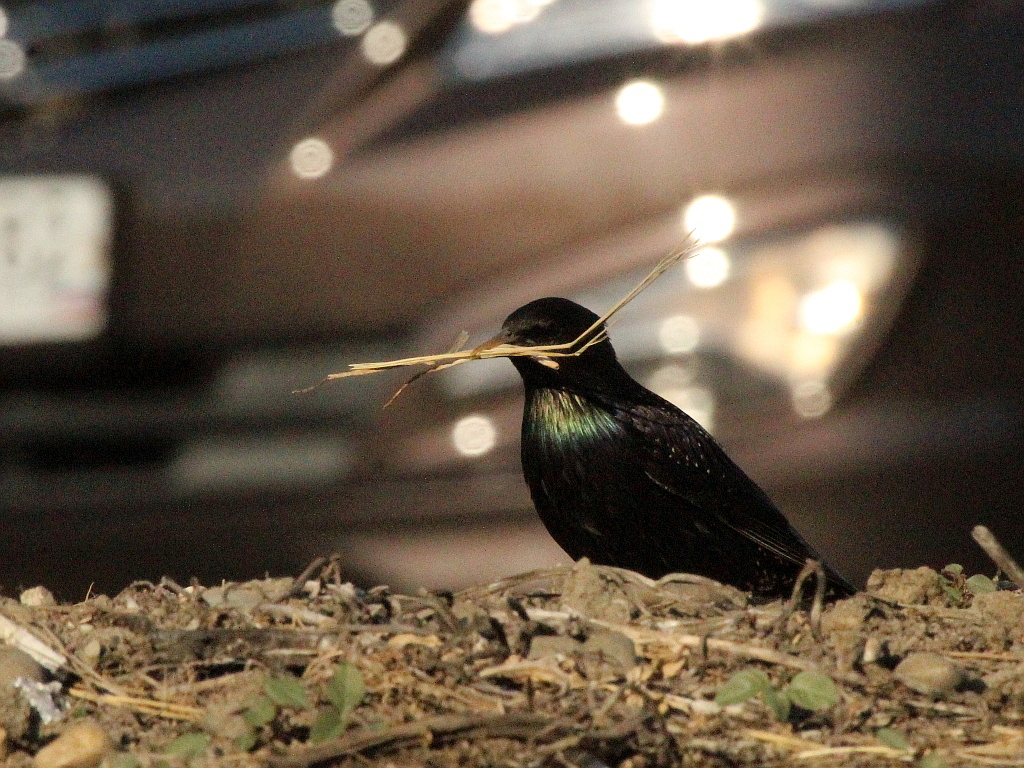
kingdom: Animalia
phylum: Chordata
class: Aves
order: Passeriformes
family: Sturnidae
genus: Sturnus
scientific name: Sturnus vulgaris
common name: Common starling
